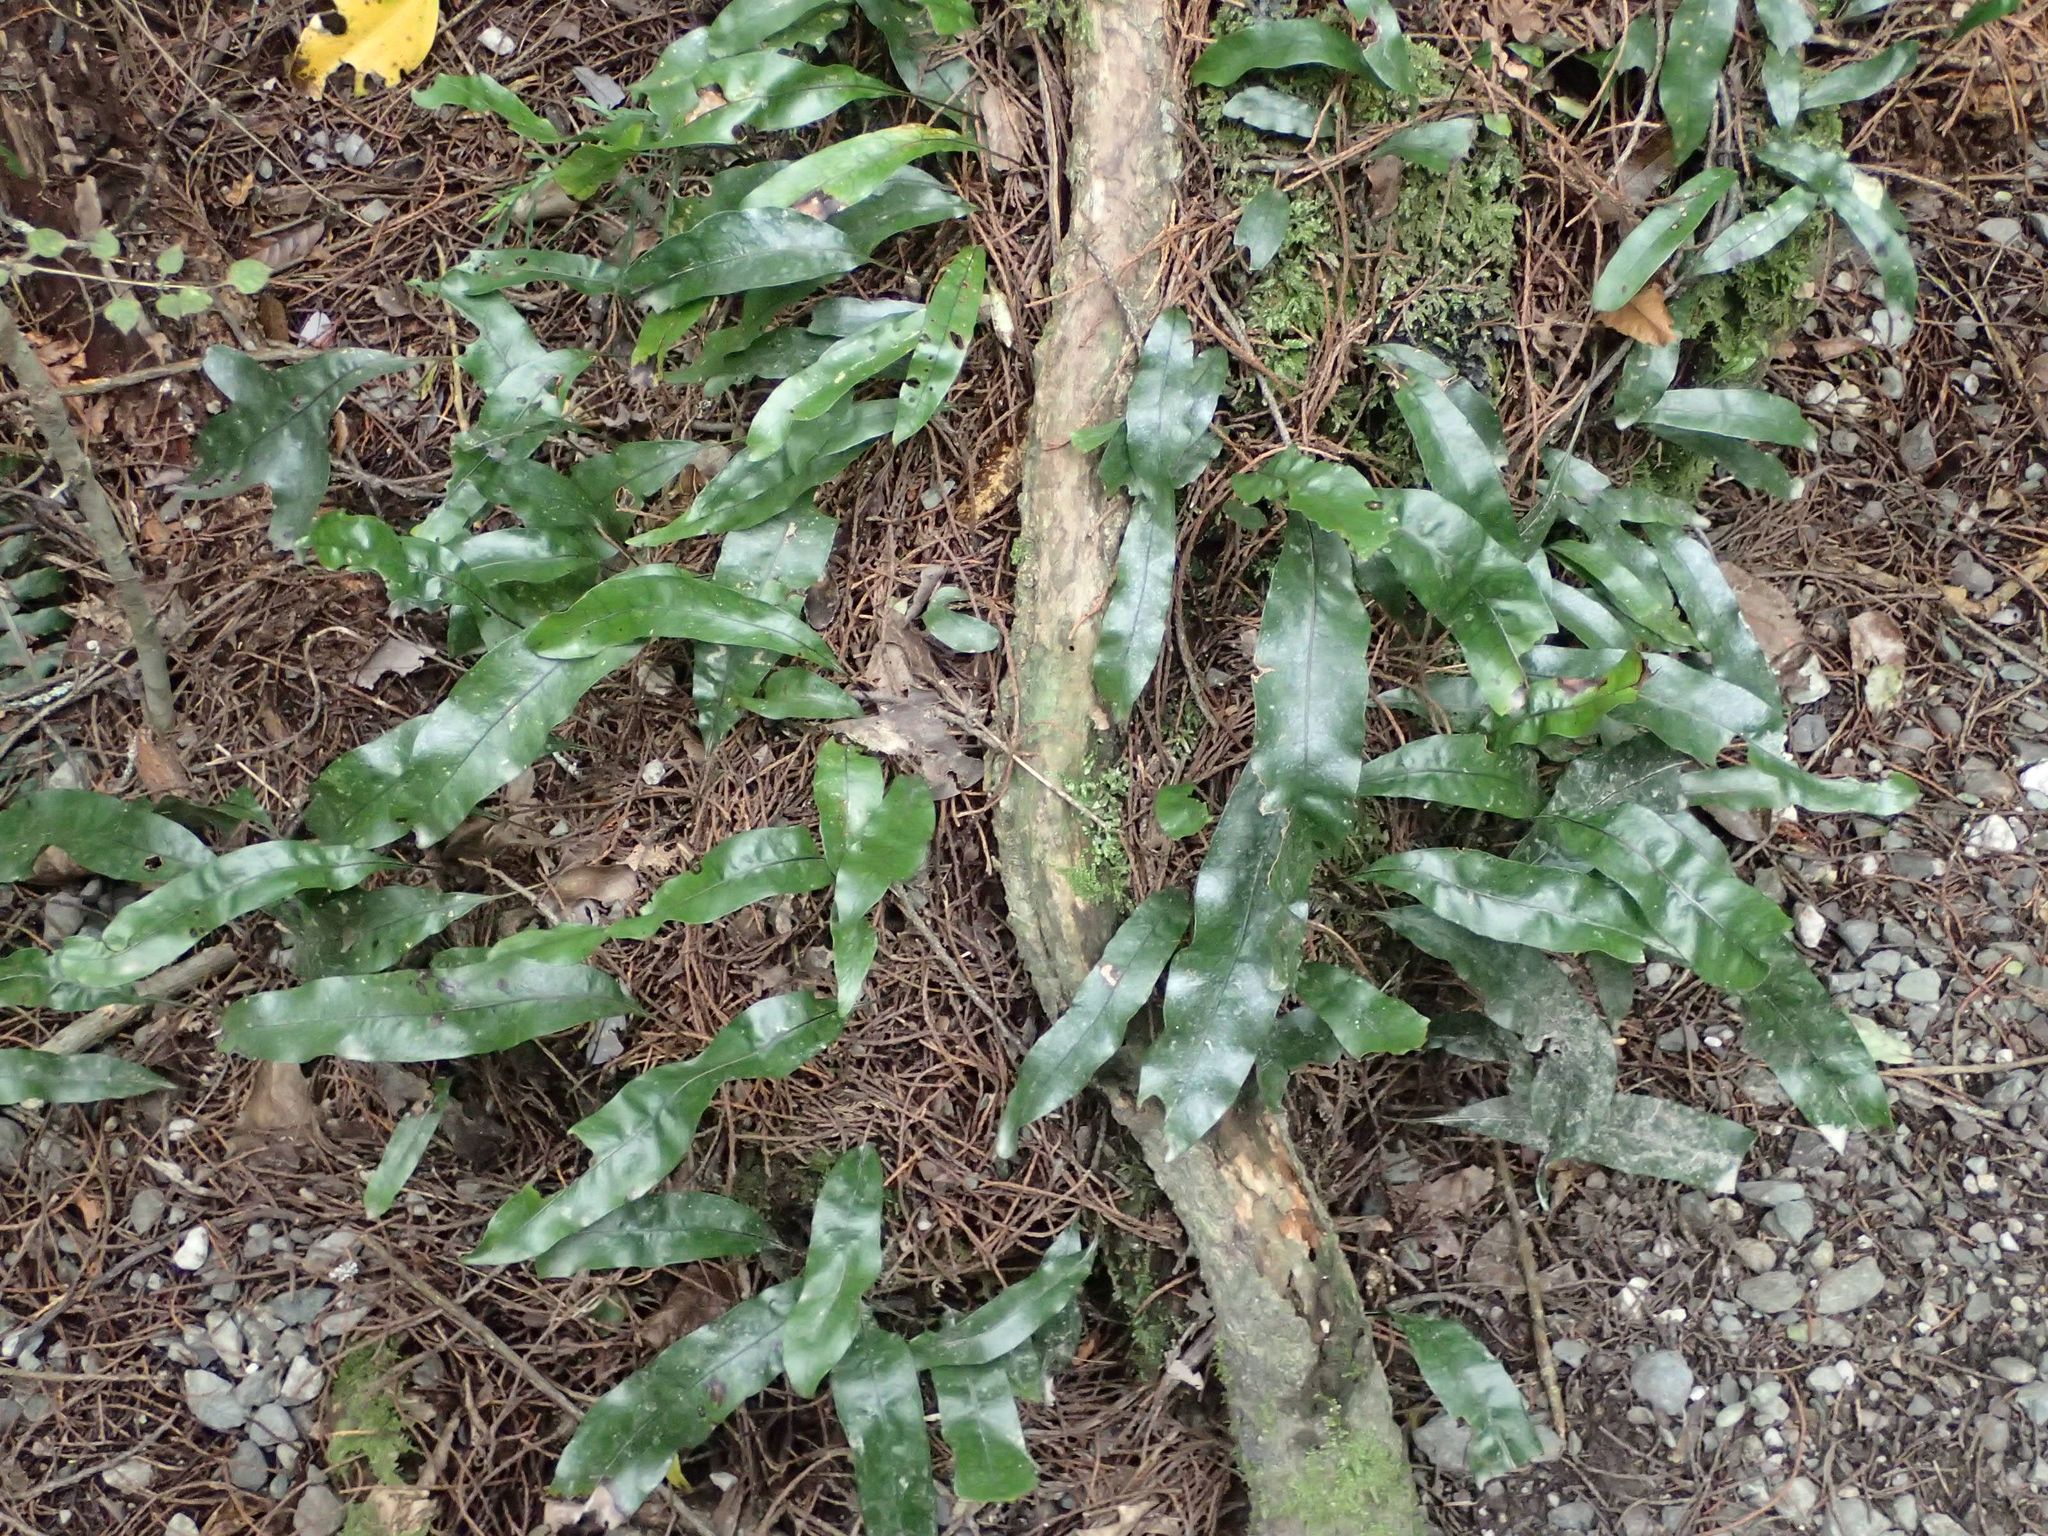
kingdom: Plantae
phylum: Tracheophyta
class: Polypodiopsida
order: Polypodiales
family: Polypodiaceae
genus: Lecanopteris
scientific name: Lecanopteris pustulata
